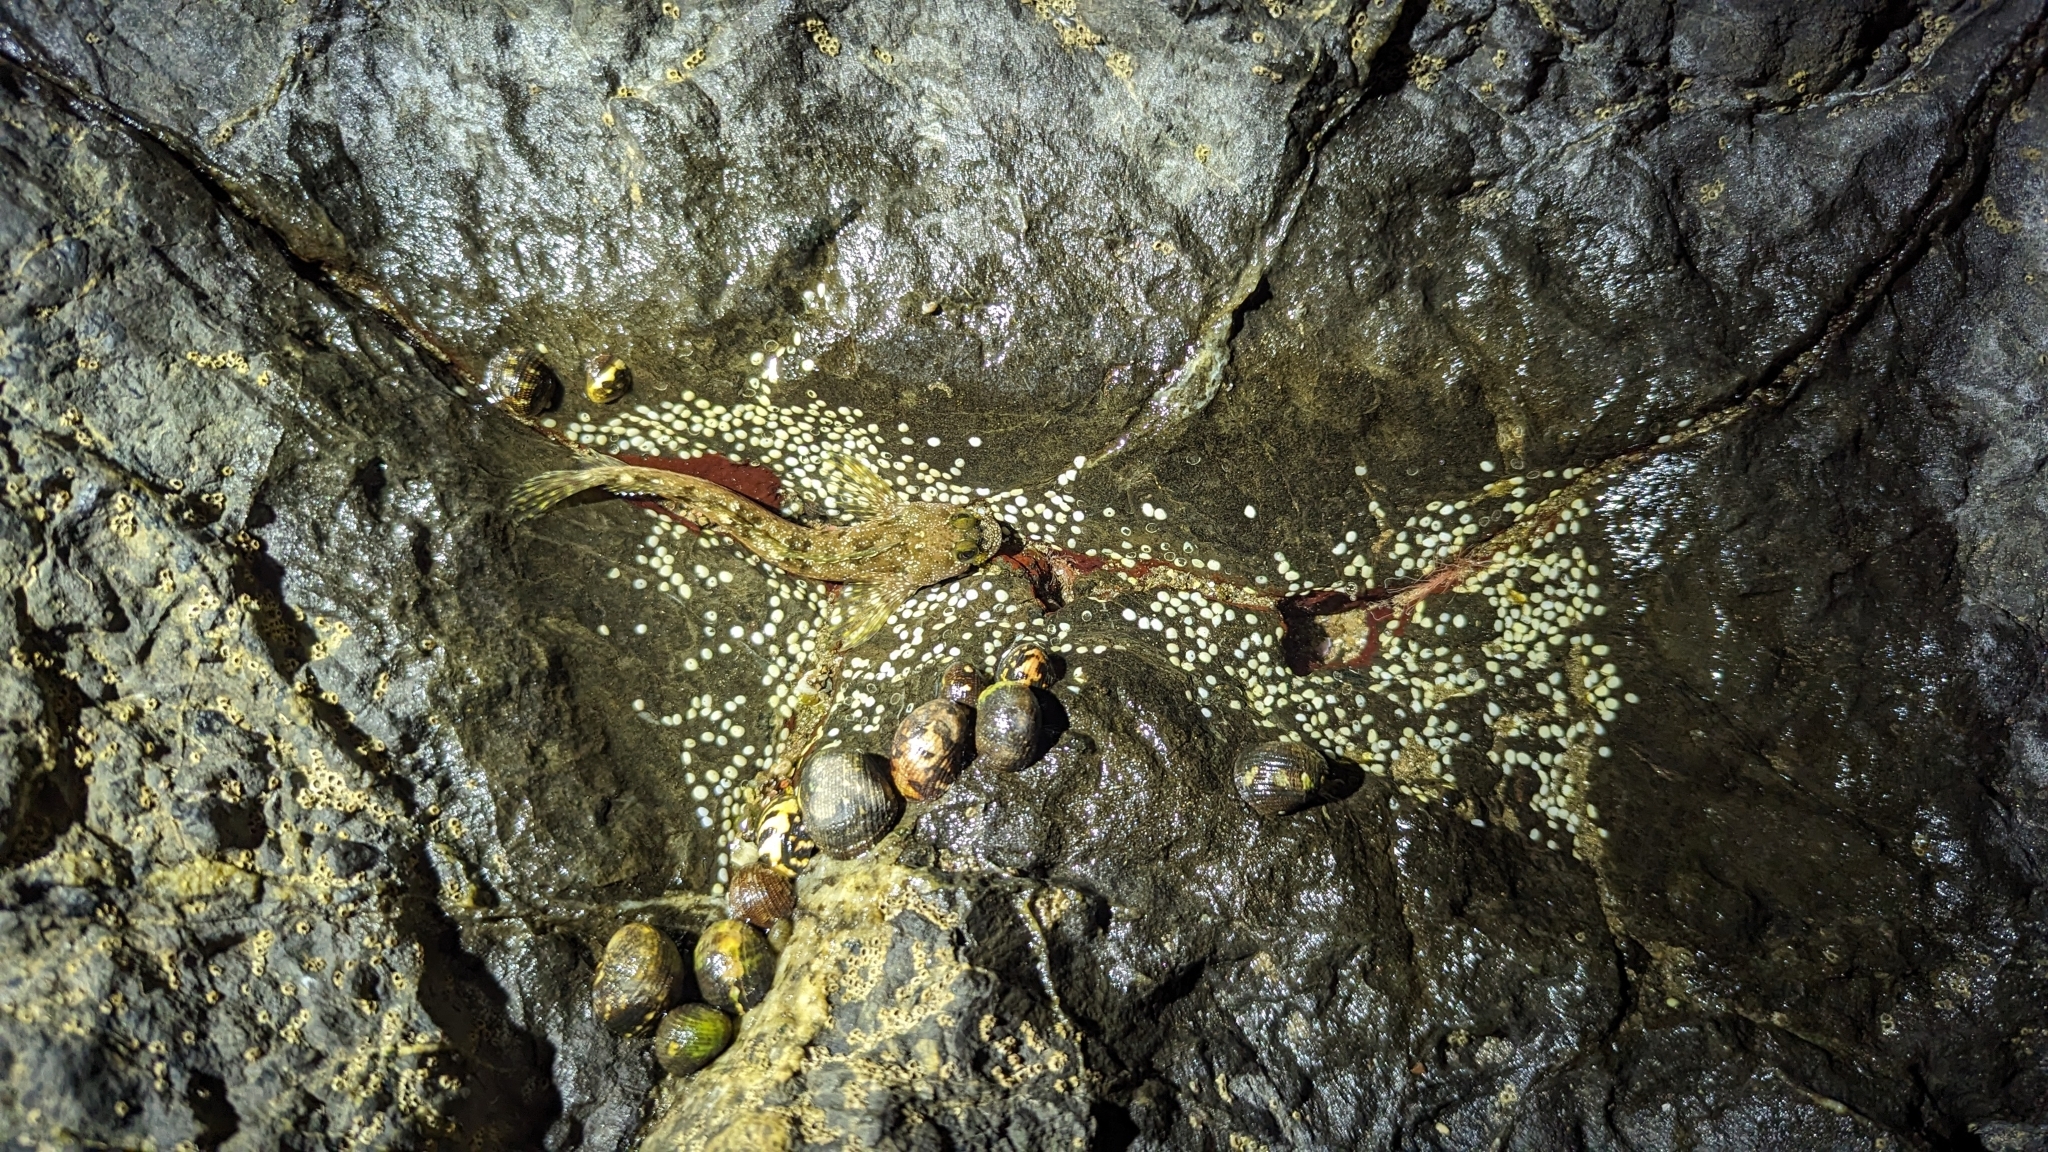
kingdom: Animalia
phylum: Chordata
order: Perciformes
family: Labrisomidae
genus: Dialommus
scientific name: Dialommus macrocephalus
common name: Foureye rockskipper
